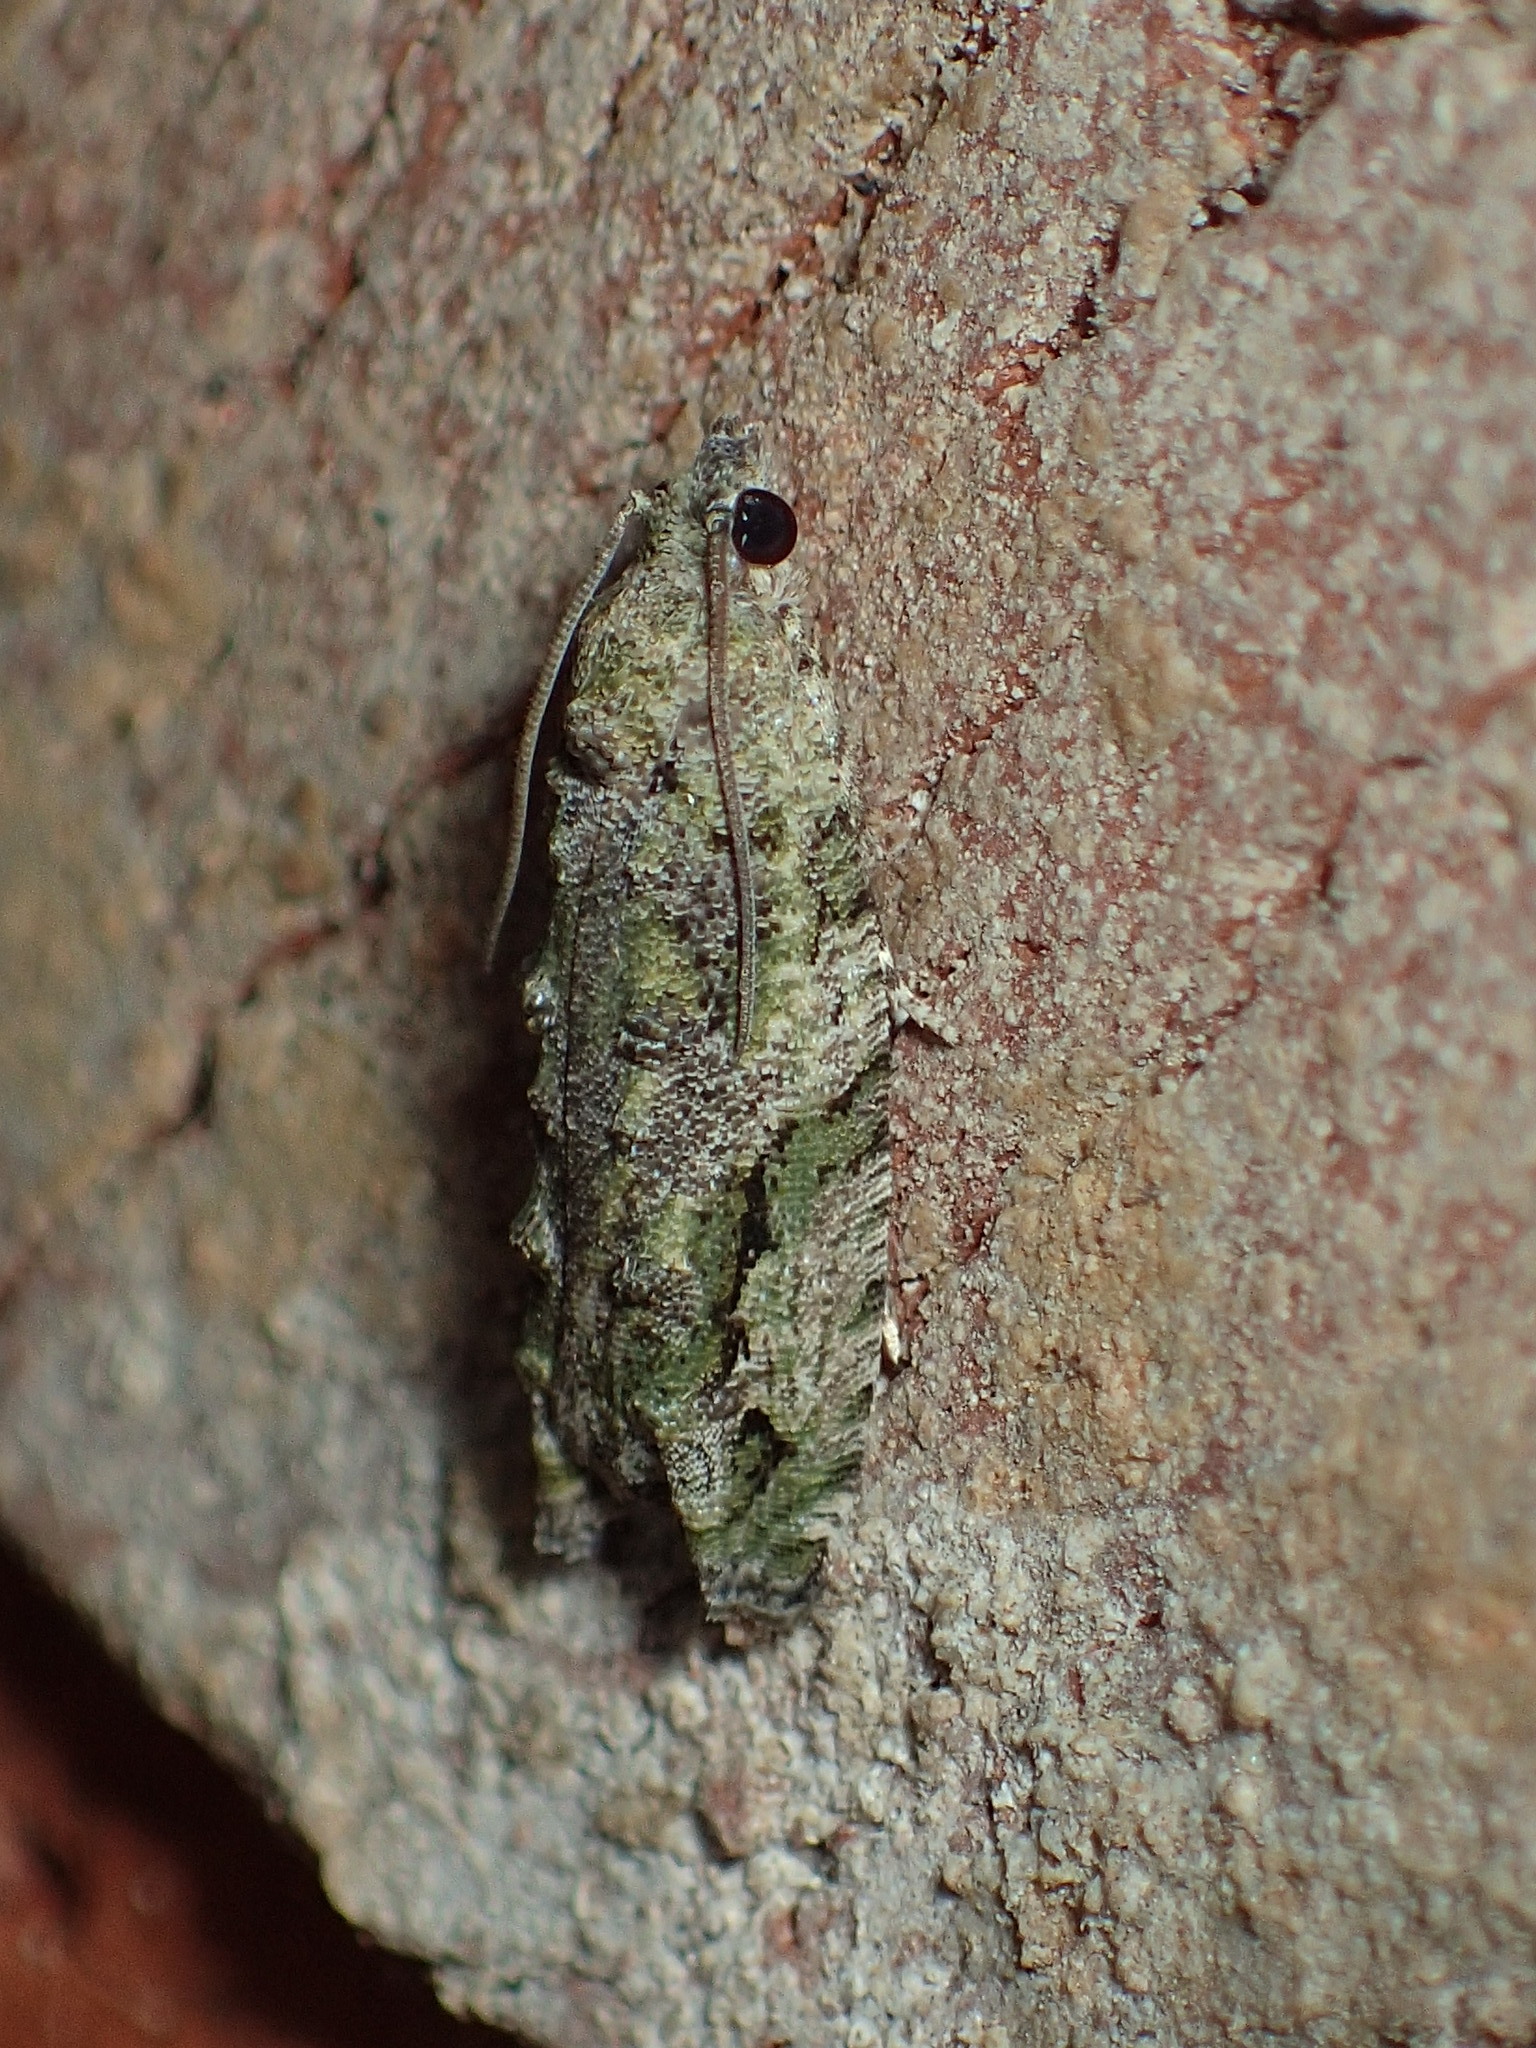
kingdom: Animalia
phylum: Arthropoda
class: Insecta
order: Lepidoptera
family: Tortricidae
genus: Proteoteras
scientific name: Proteoteras aesculana
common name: Maple twig borer moth
